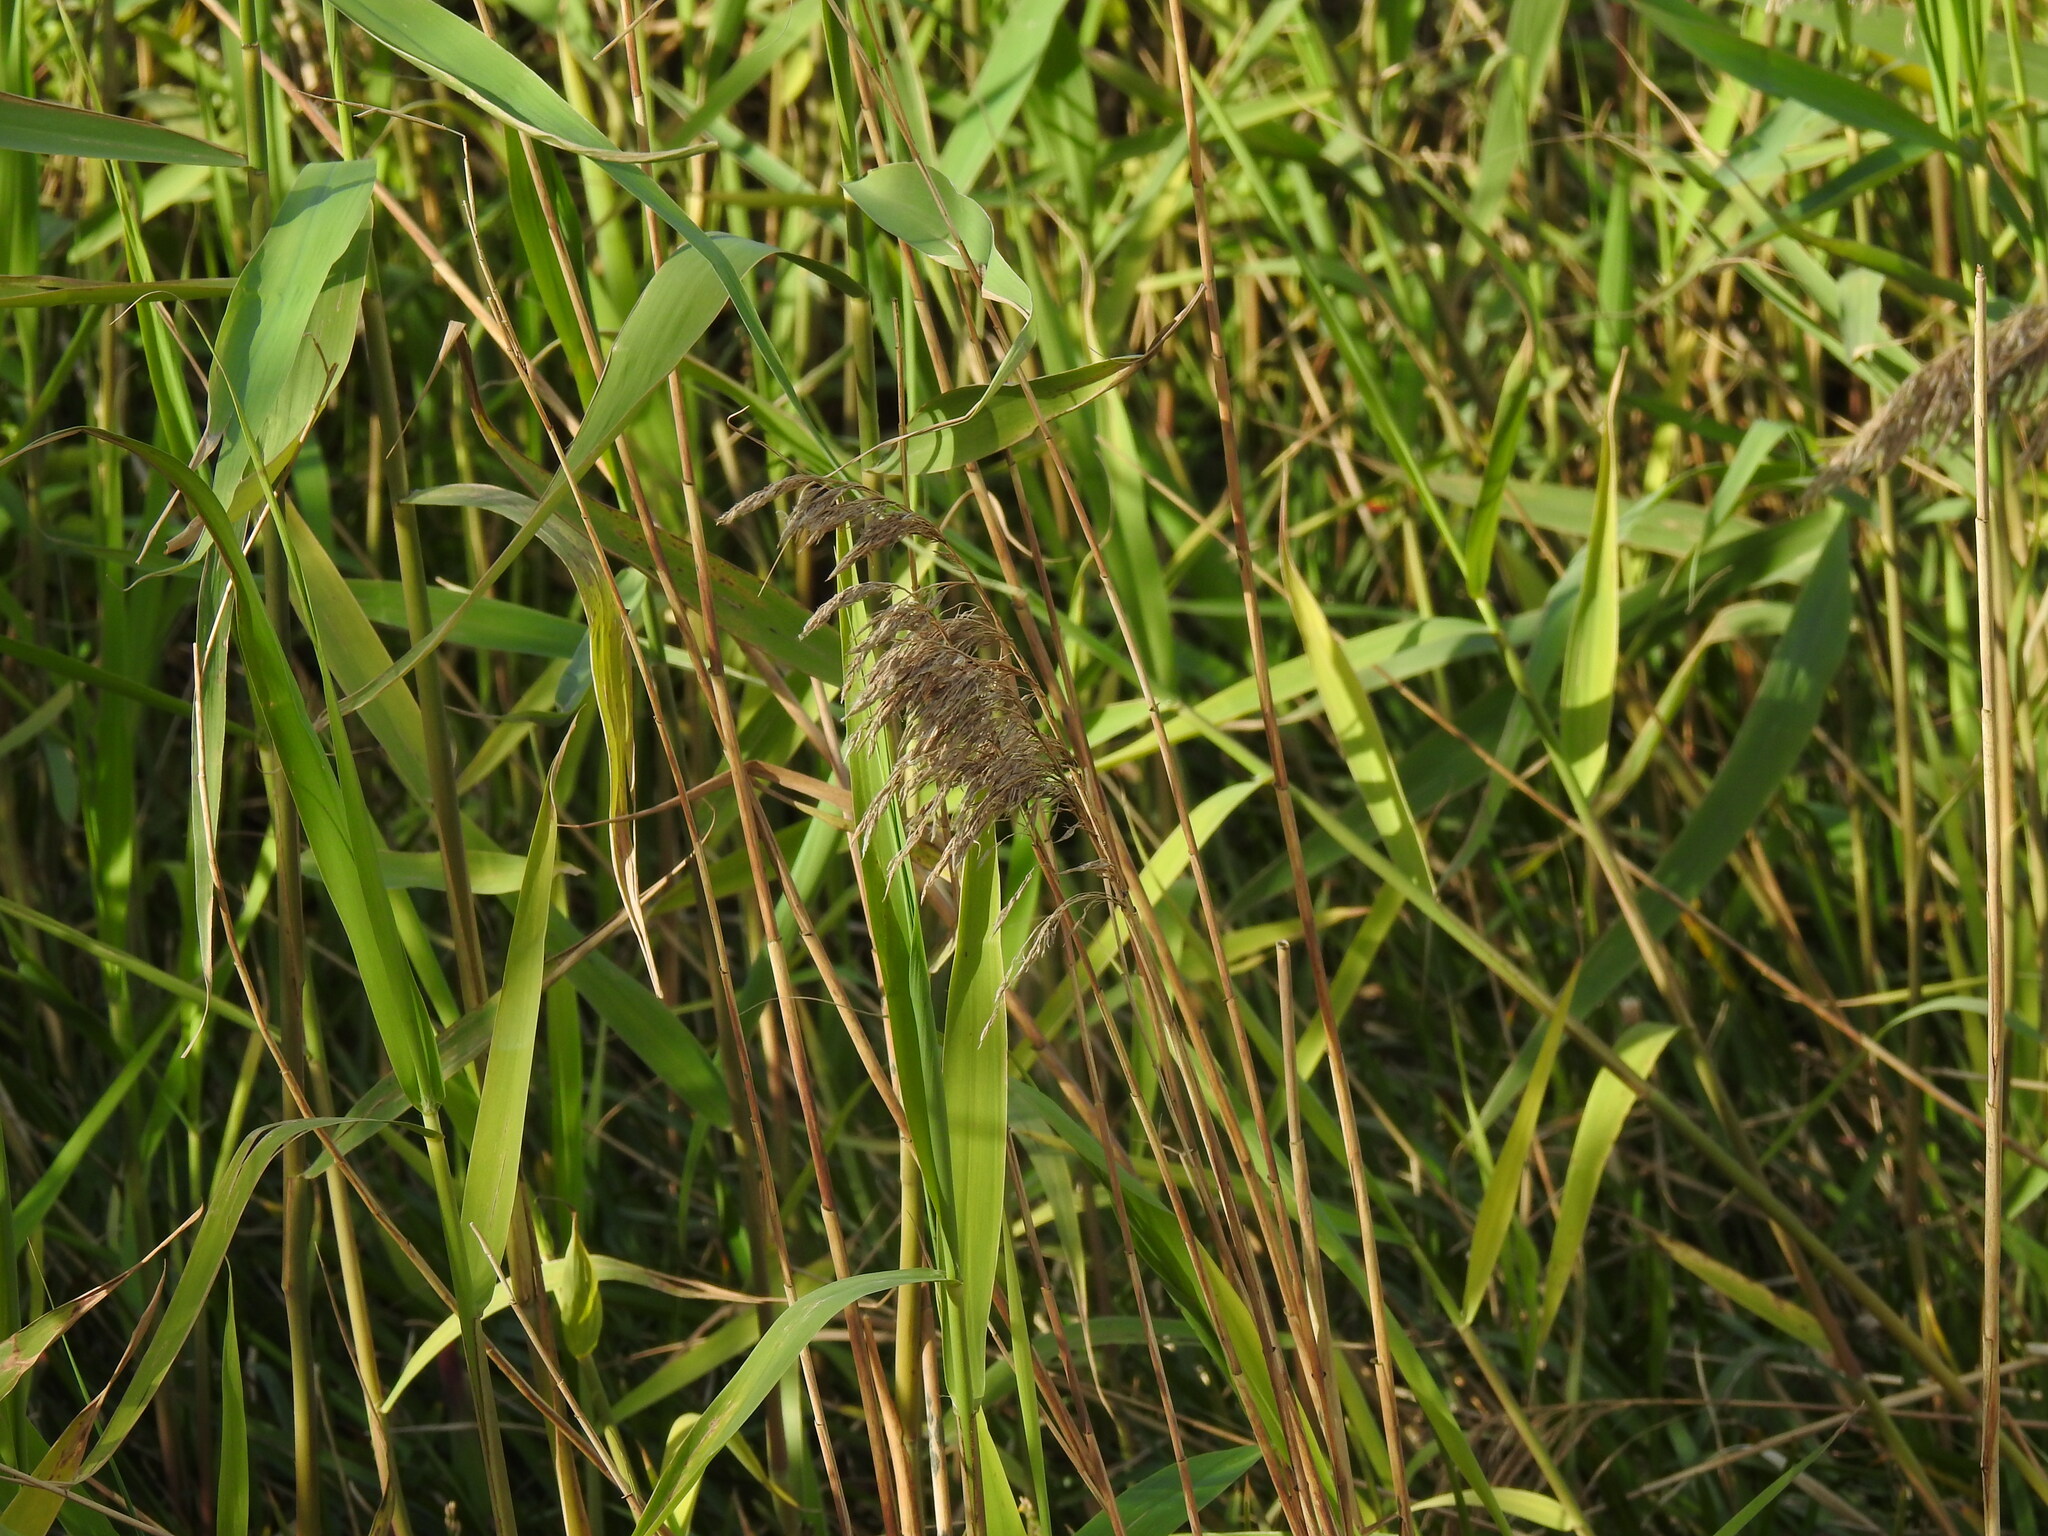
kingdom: Plantae
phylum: Tracheophyta
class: Liliopsida
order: Poales
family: Poaceae
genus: Phragmites
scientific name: Phragmites australis
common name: Common reed
